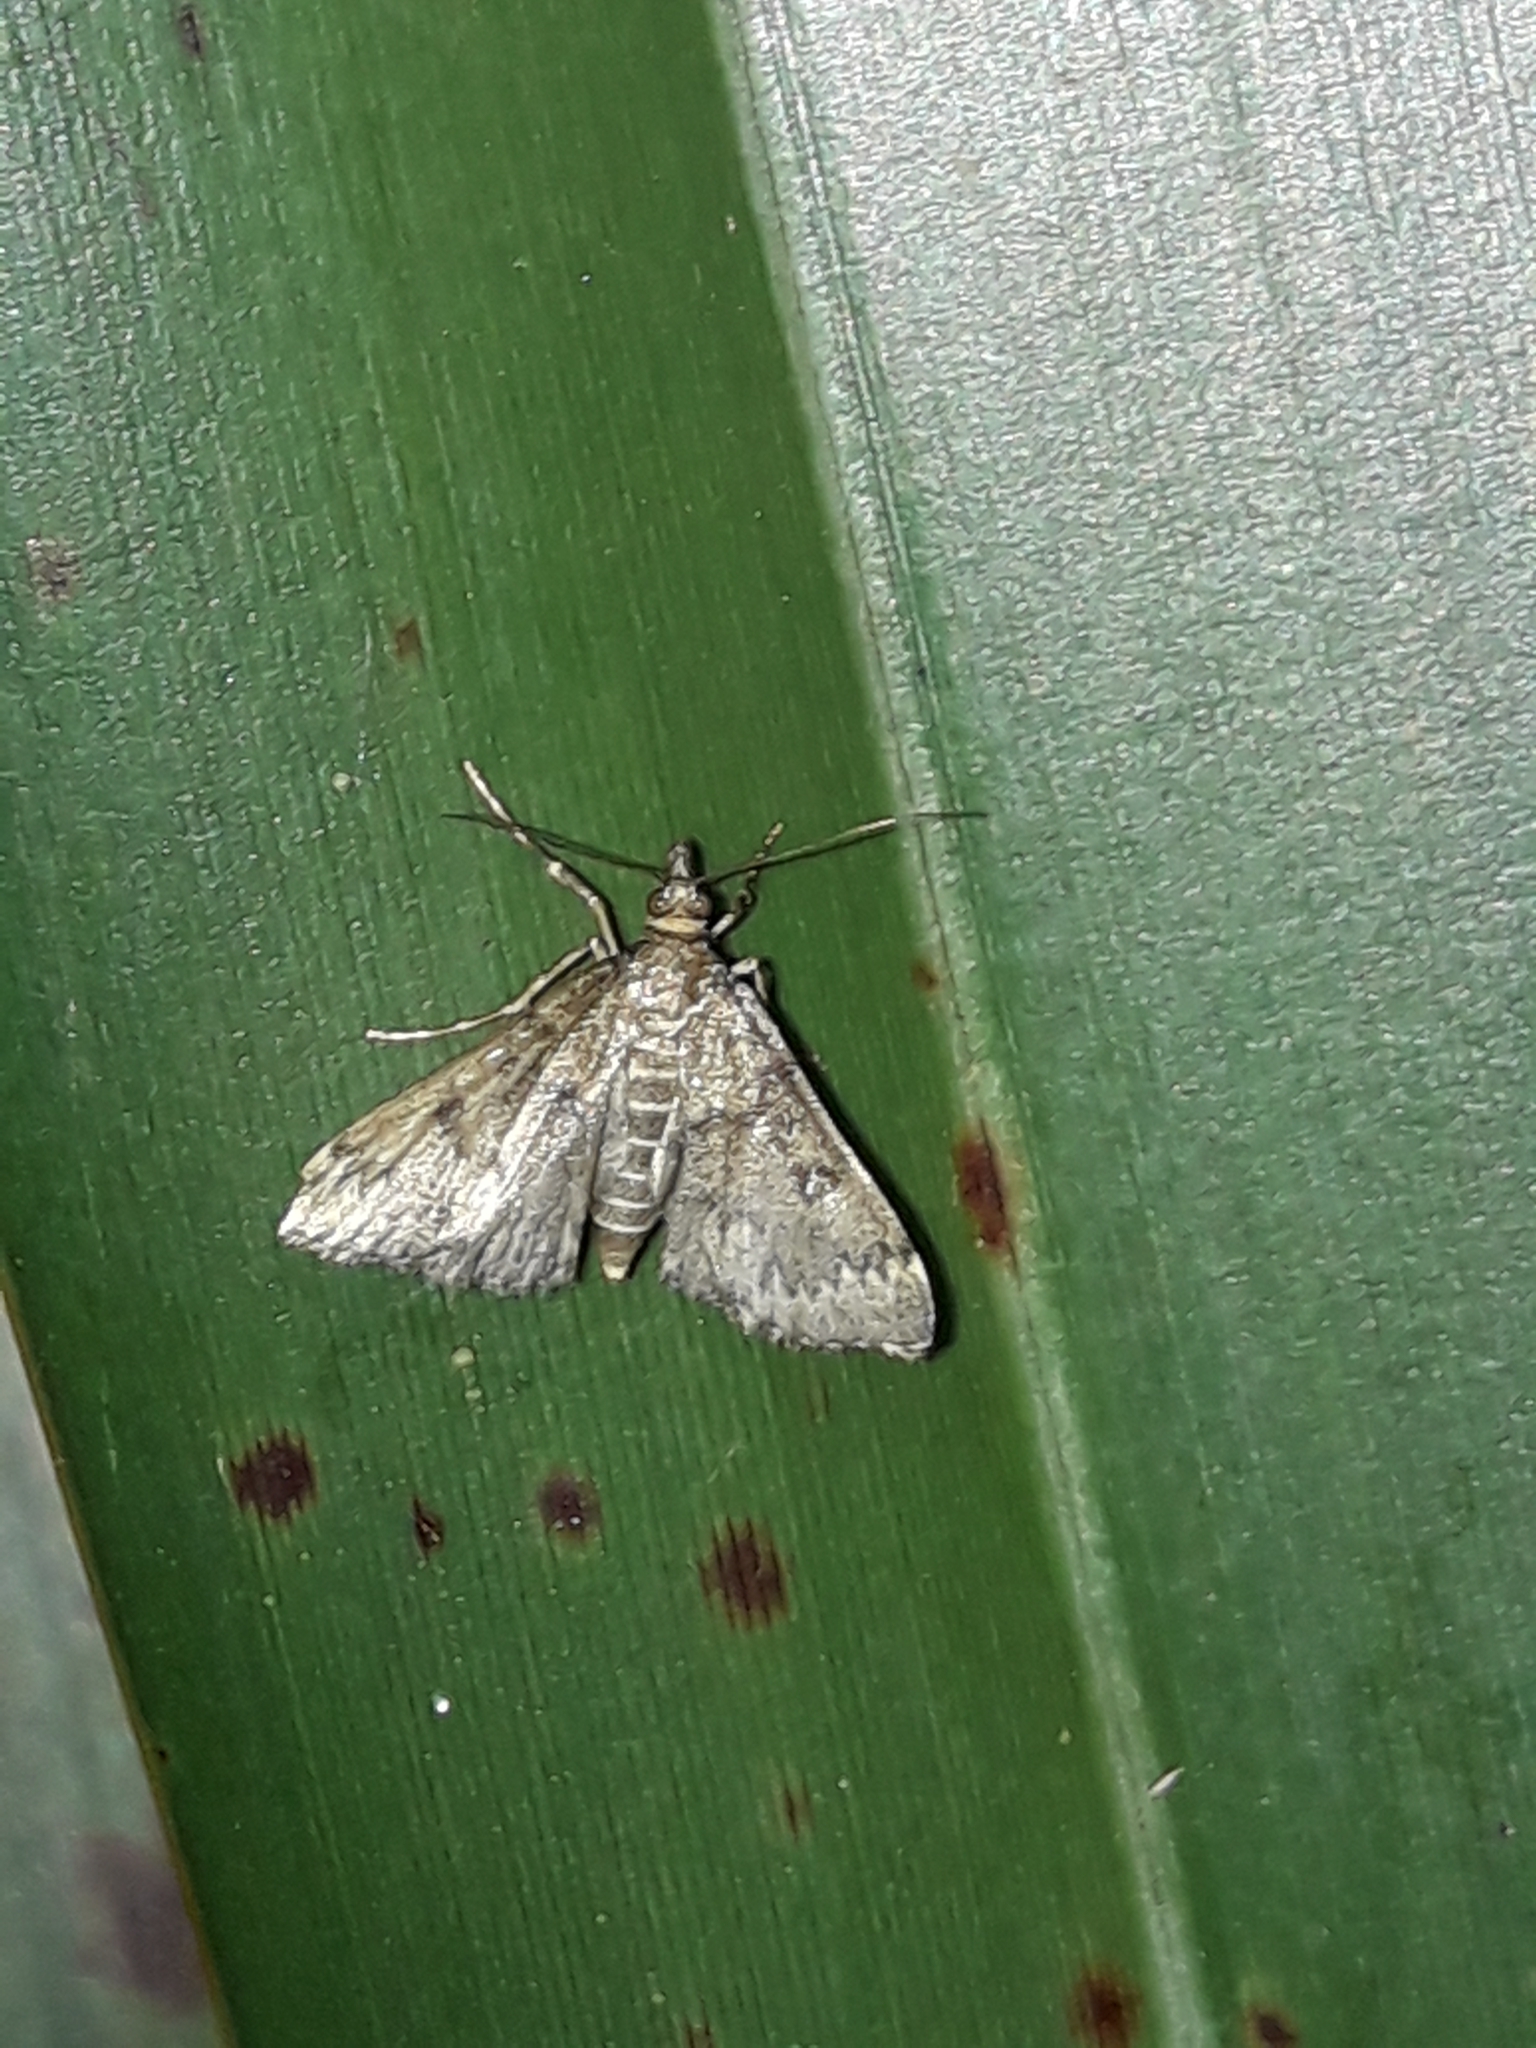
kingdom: Animalia
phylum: Arthropoda
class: Insecta
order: Lepidoptera
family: Crambidae
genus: Loxostege
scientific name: Loxostege Proternia philocapna
